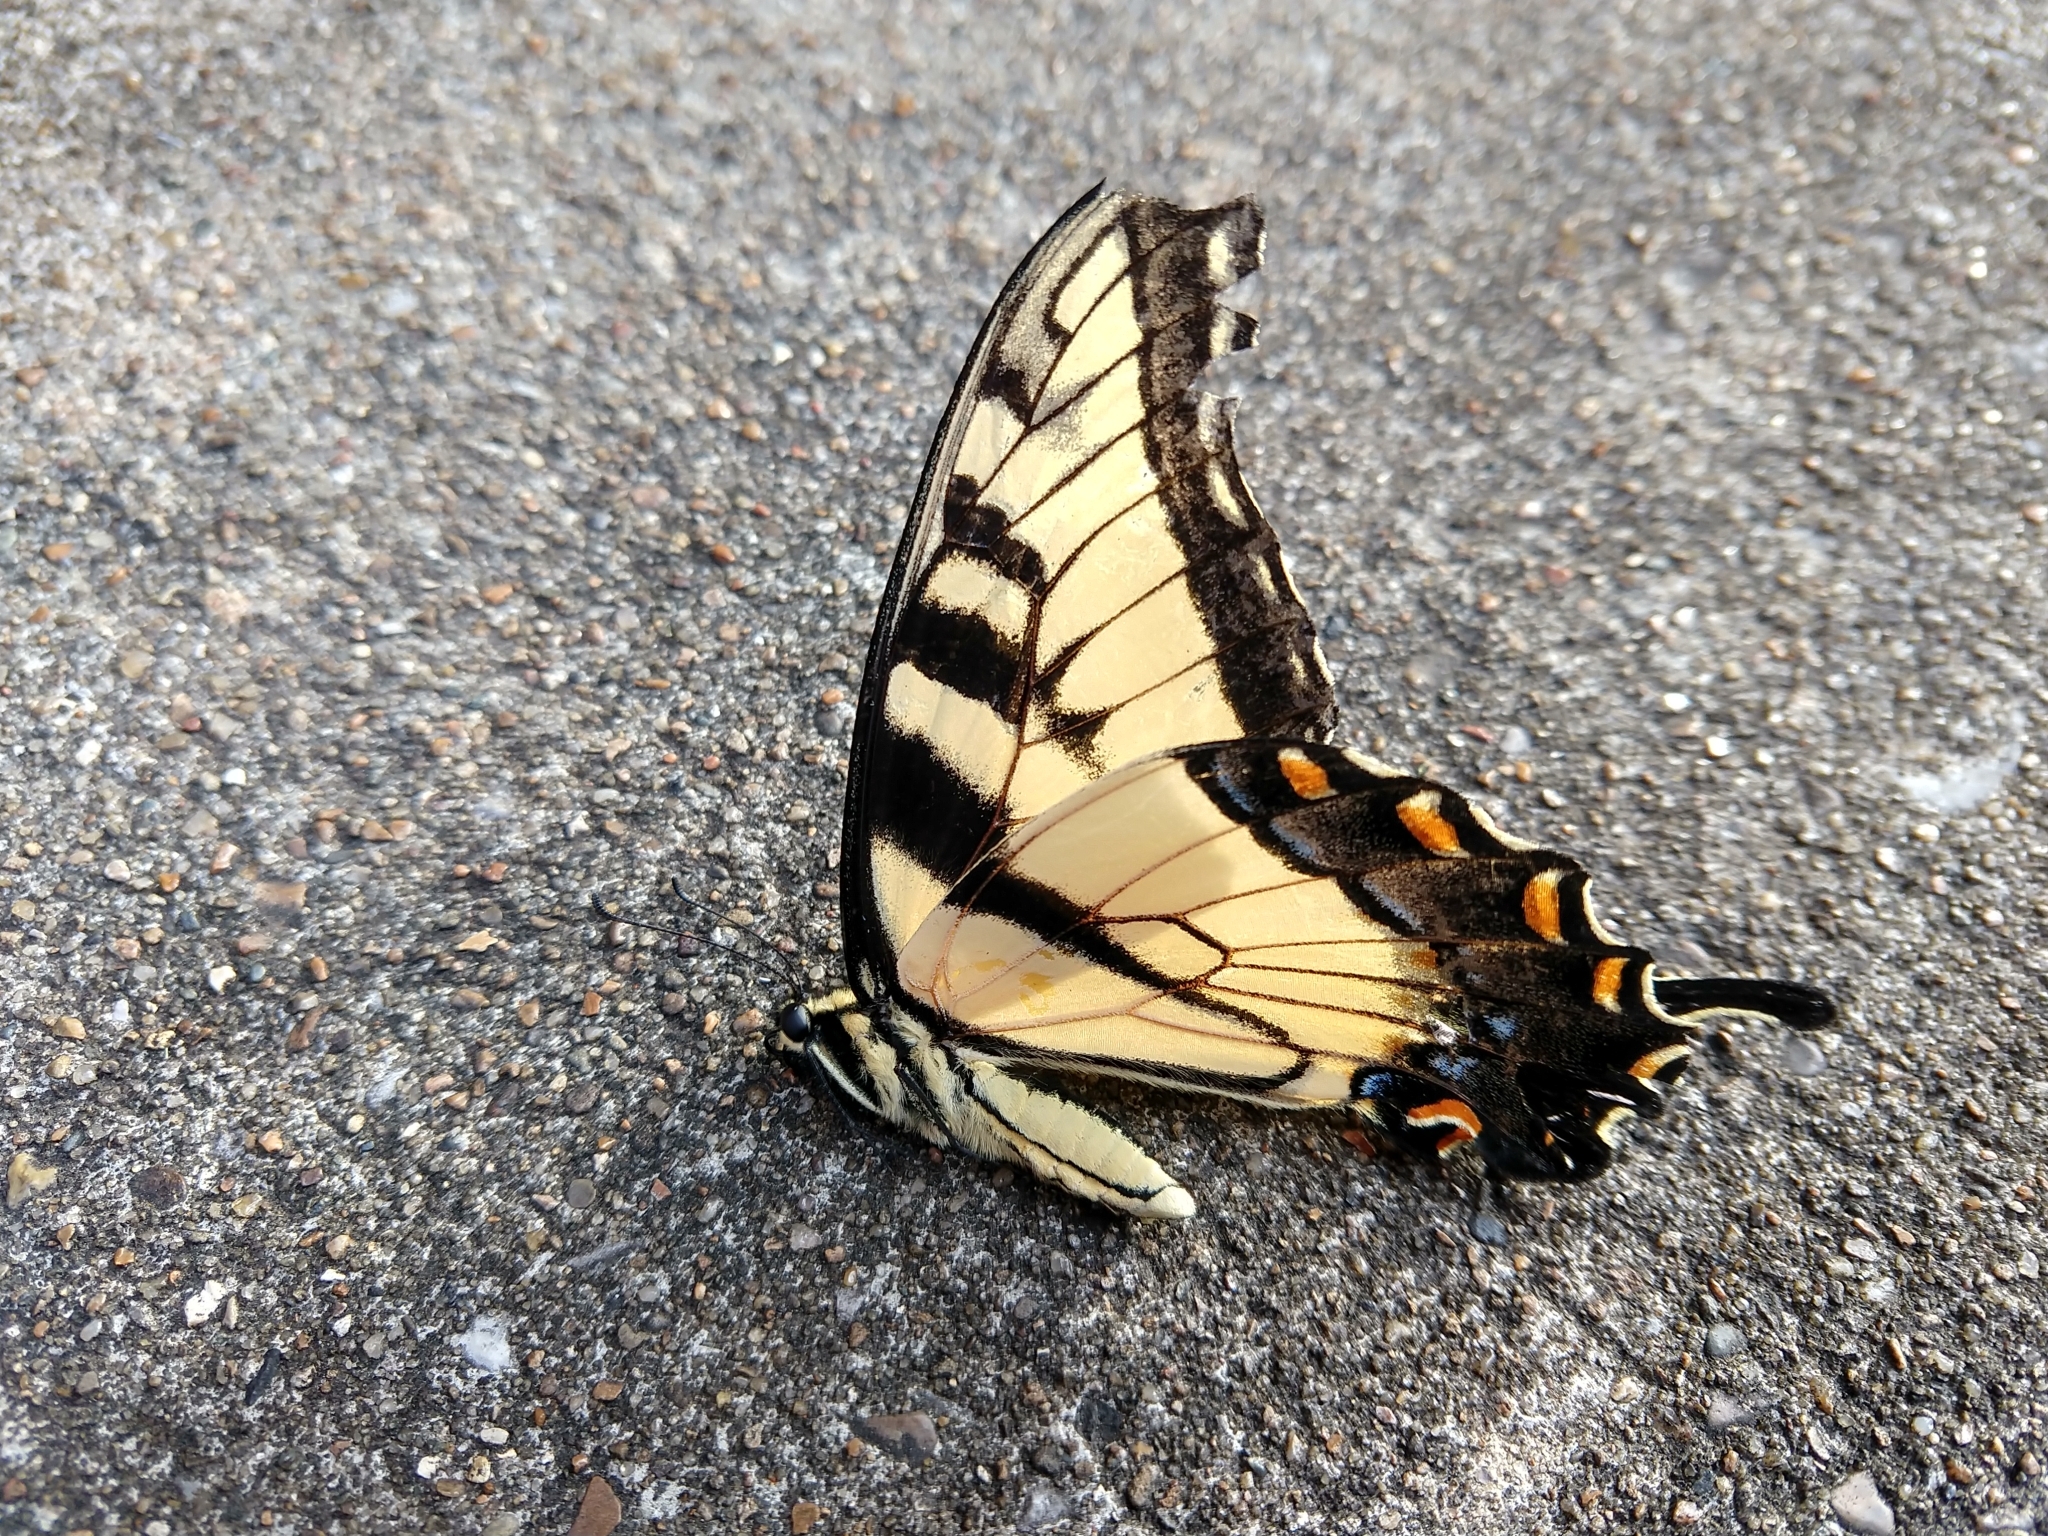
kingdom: Animalia
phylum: Arthropoda
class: Insecta
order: Lepidoptera
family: Papilionidae
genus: Papilio
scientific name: Papilio glaucus
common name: Tiger swallowtail
